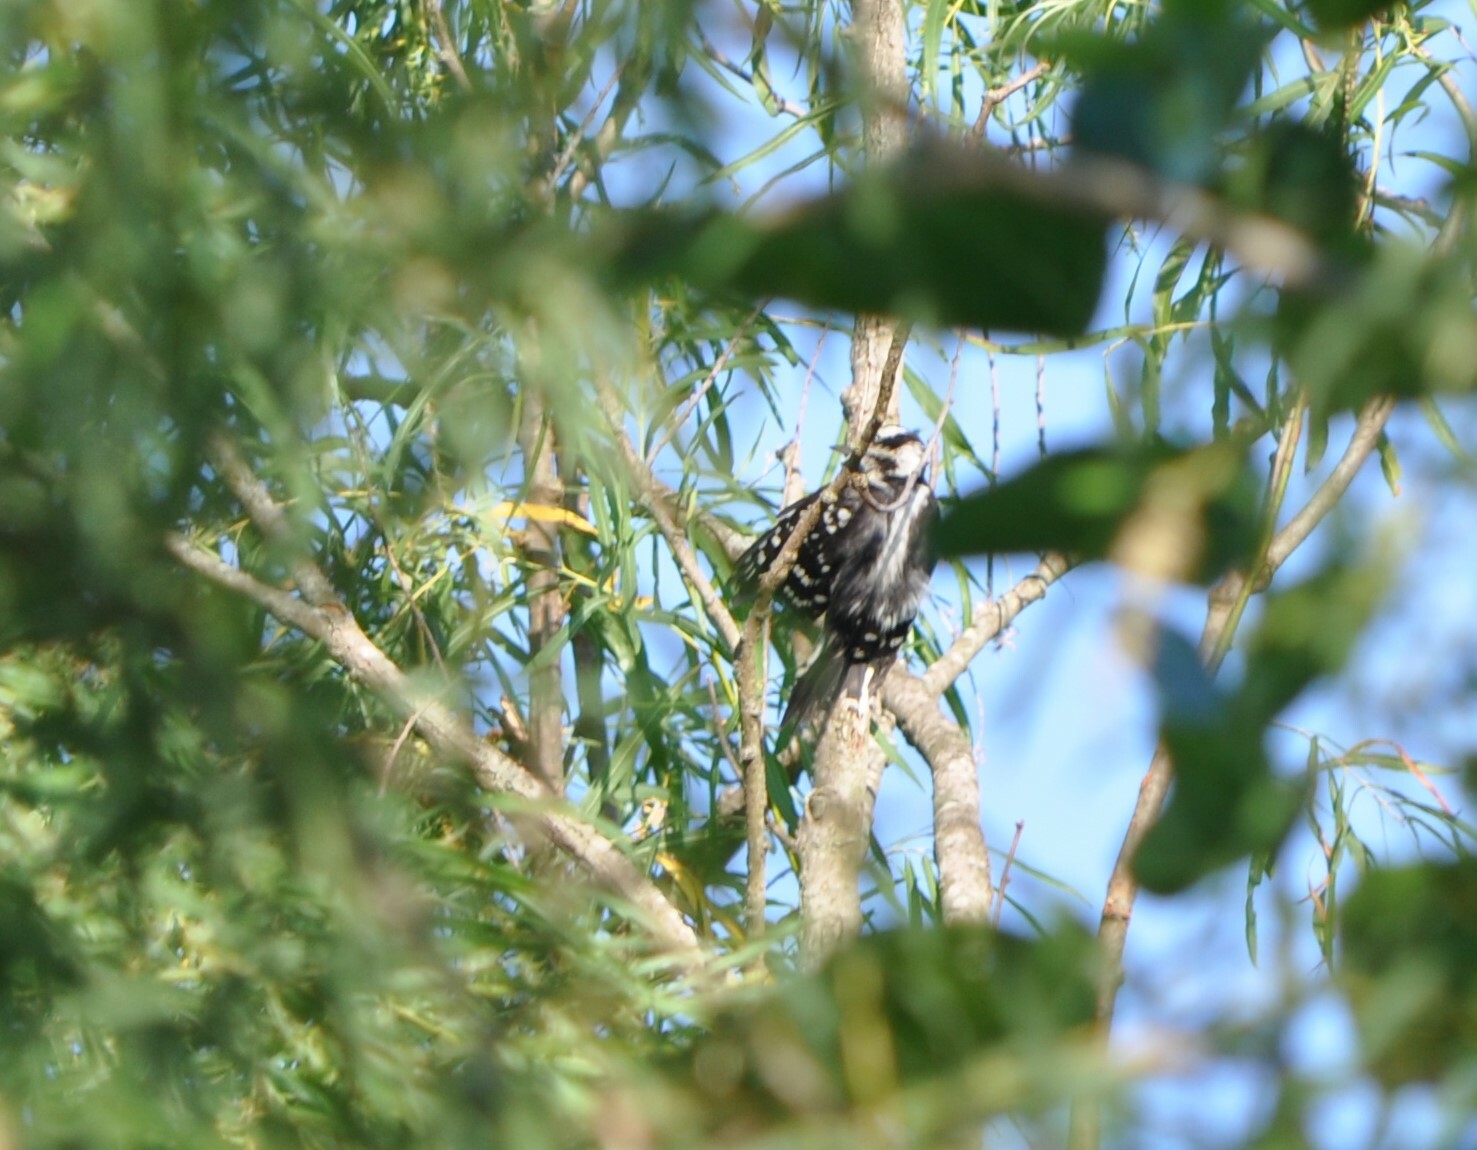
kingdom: Animalia
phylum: Chordata
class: Aves
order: Piciformes
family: Picidae
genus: Dryobates
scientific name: Dryobates pubescens
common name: Downy woodpecker
